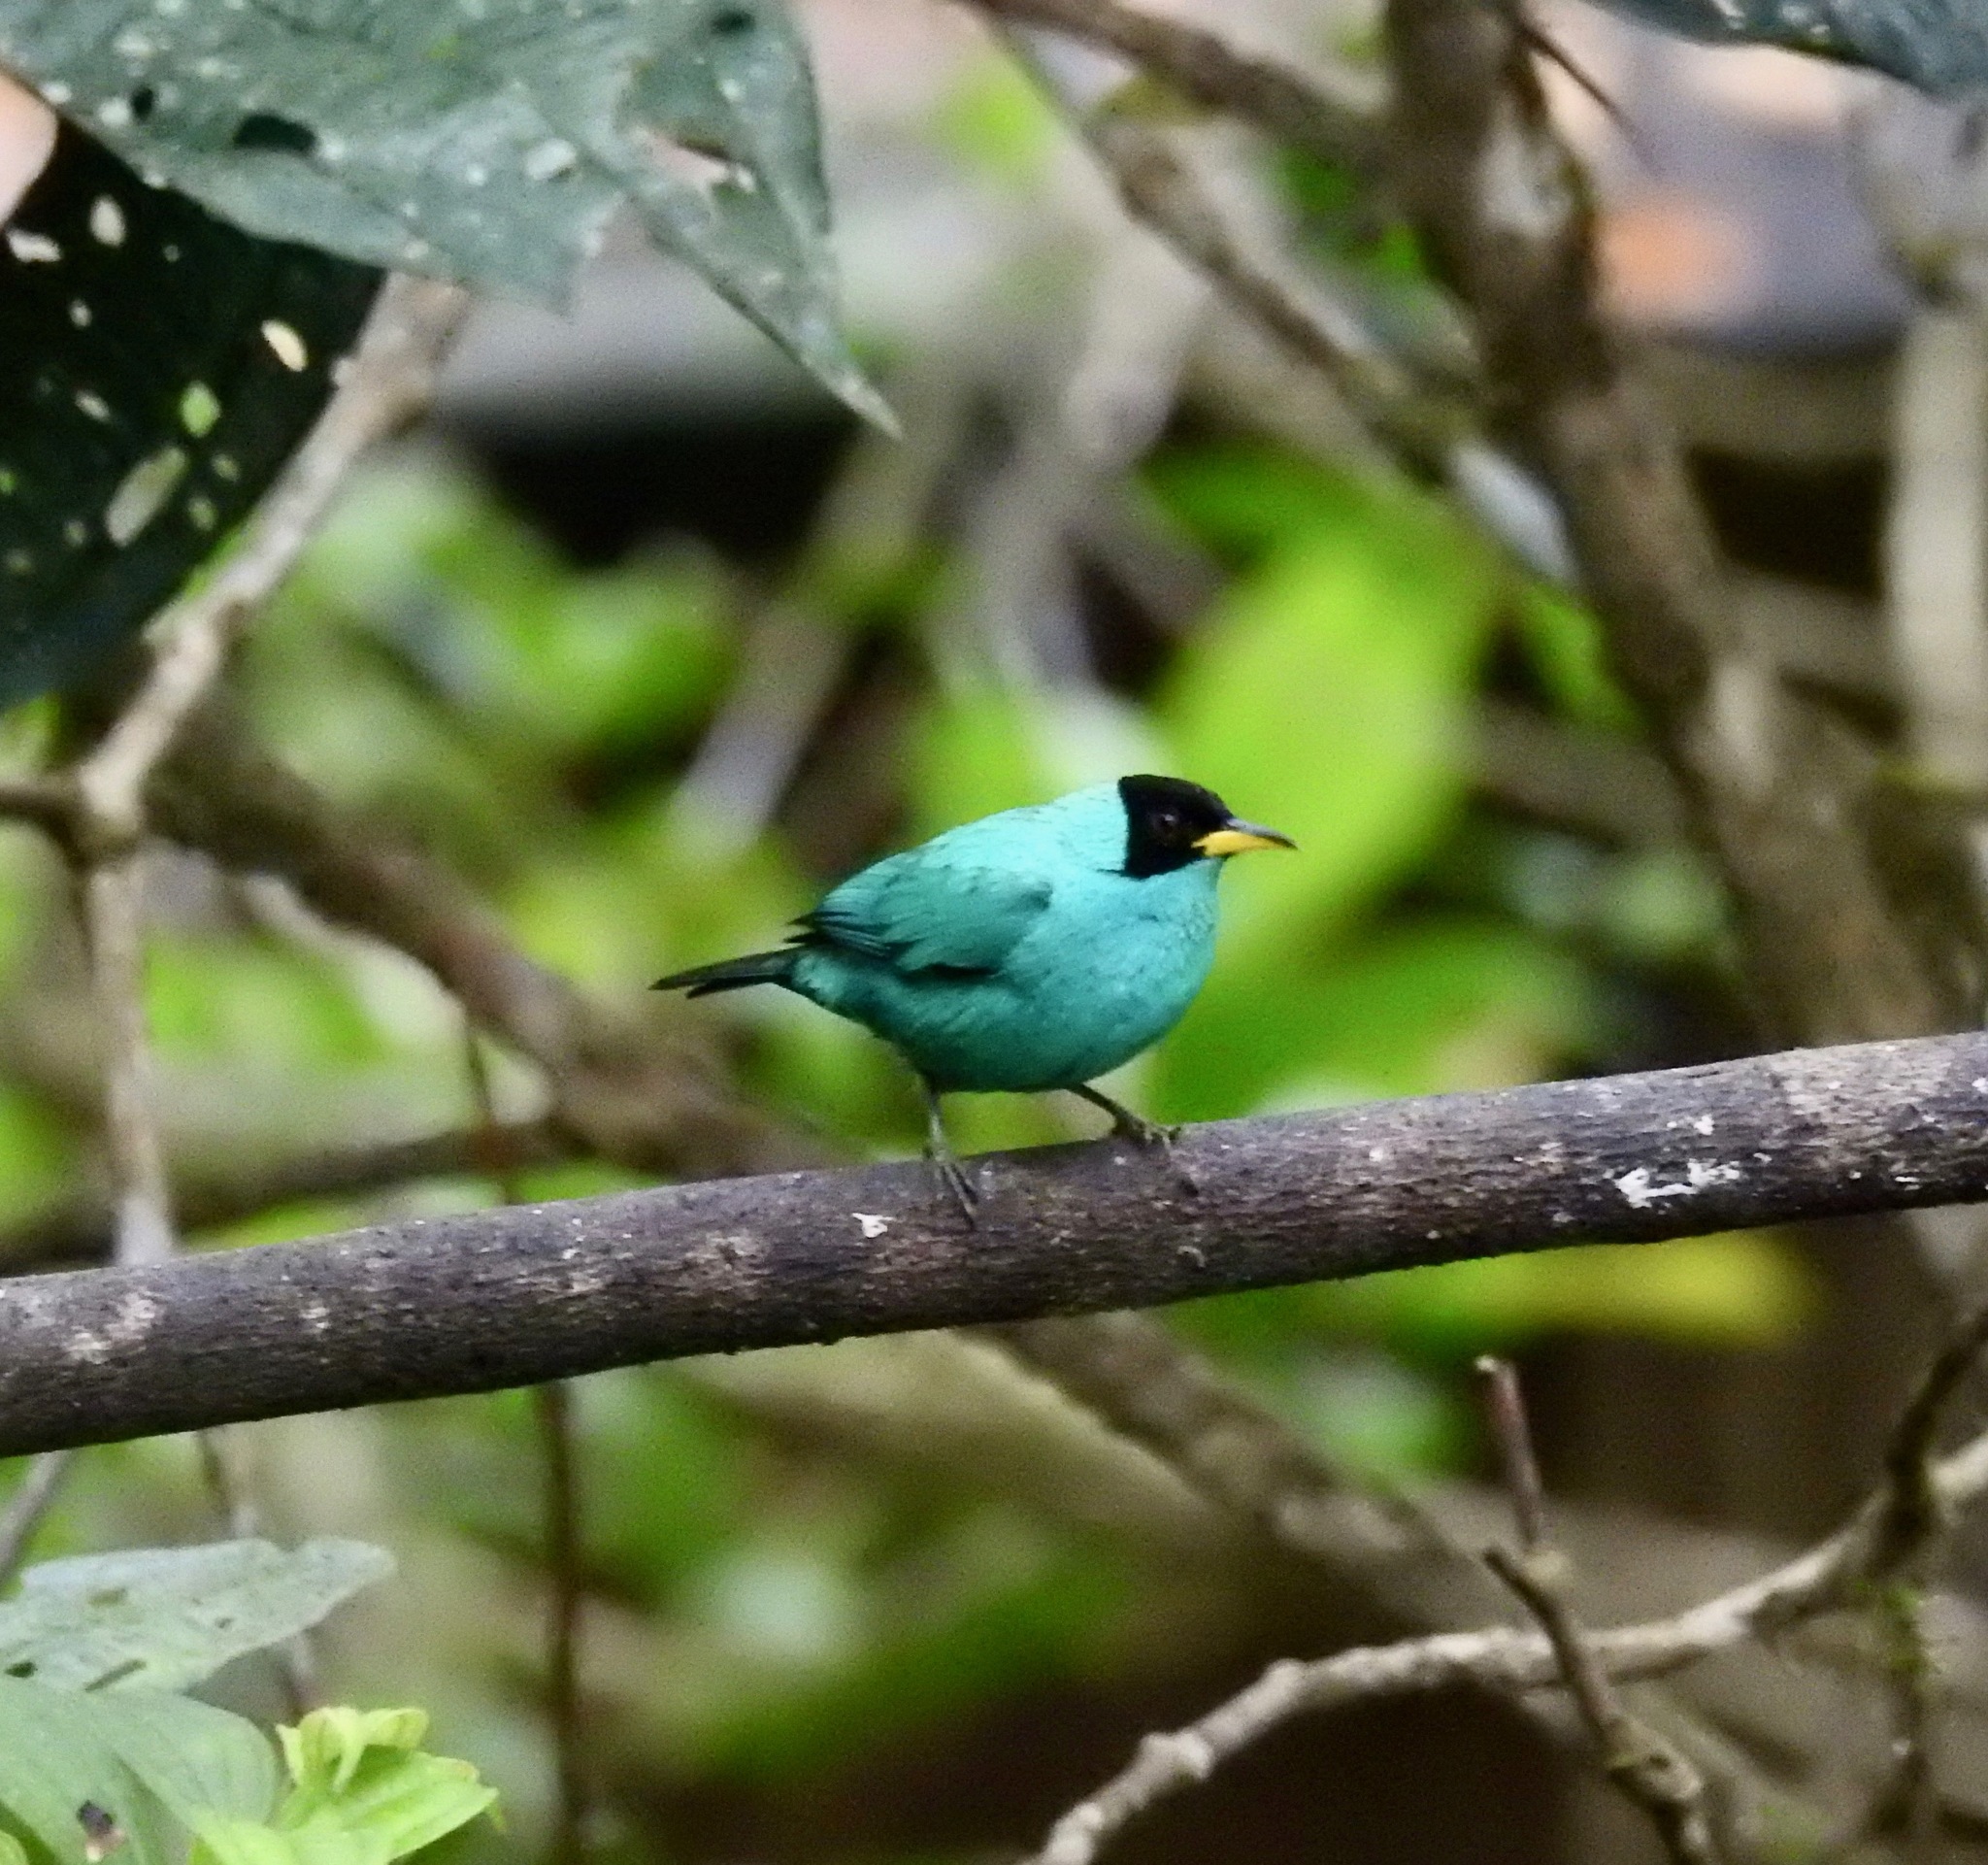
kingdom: Animalia
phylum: Chordata
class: Aves
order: Passeriformes
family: Thraupidae
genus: Chlorophanes
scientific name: Chlorophanes spiza
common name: Green honeycreeper
